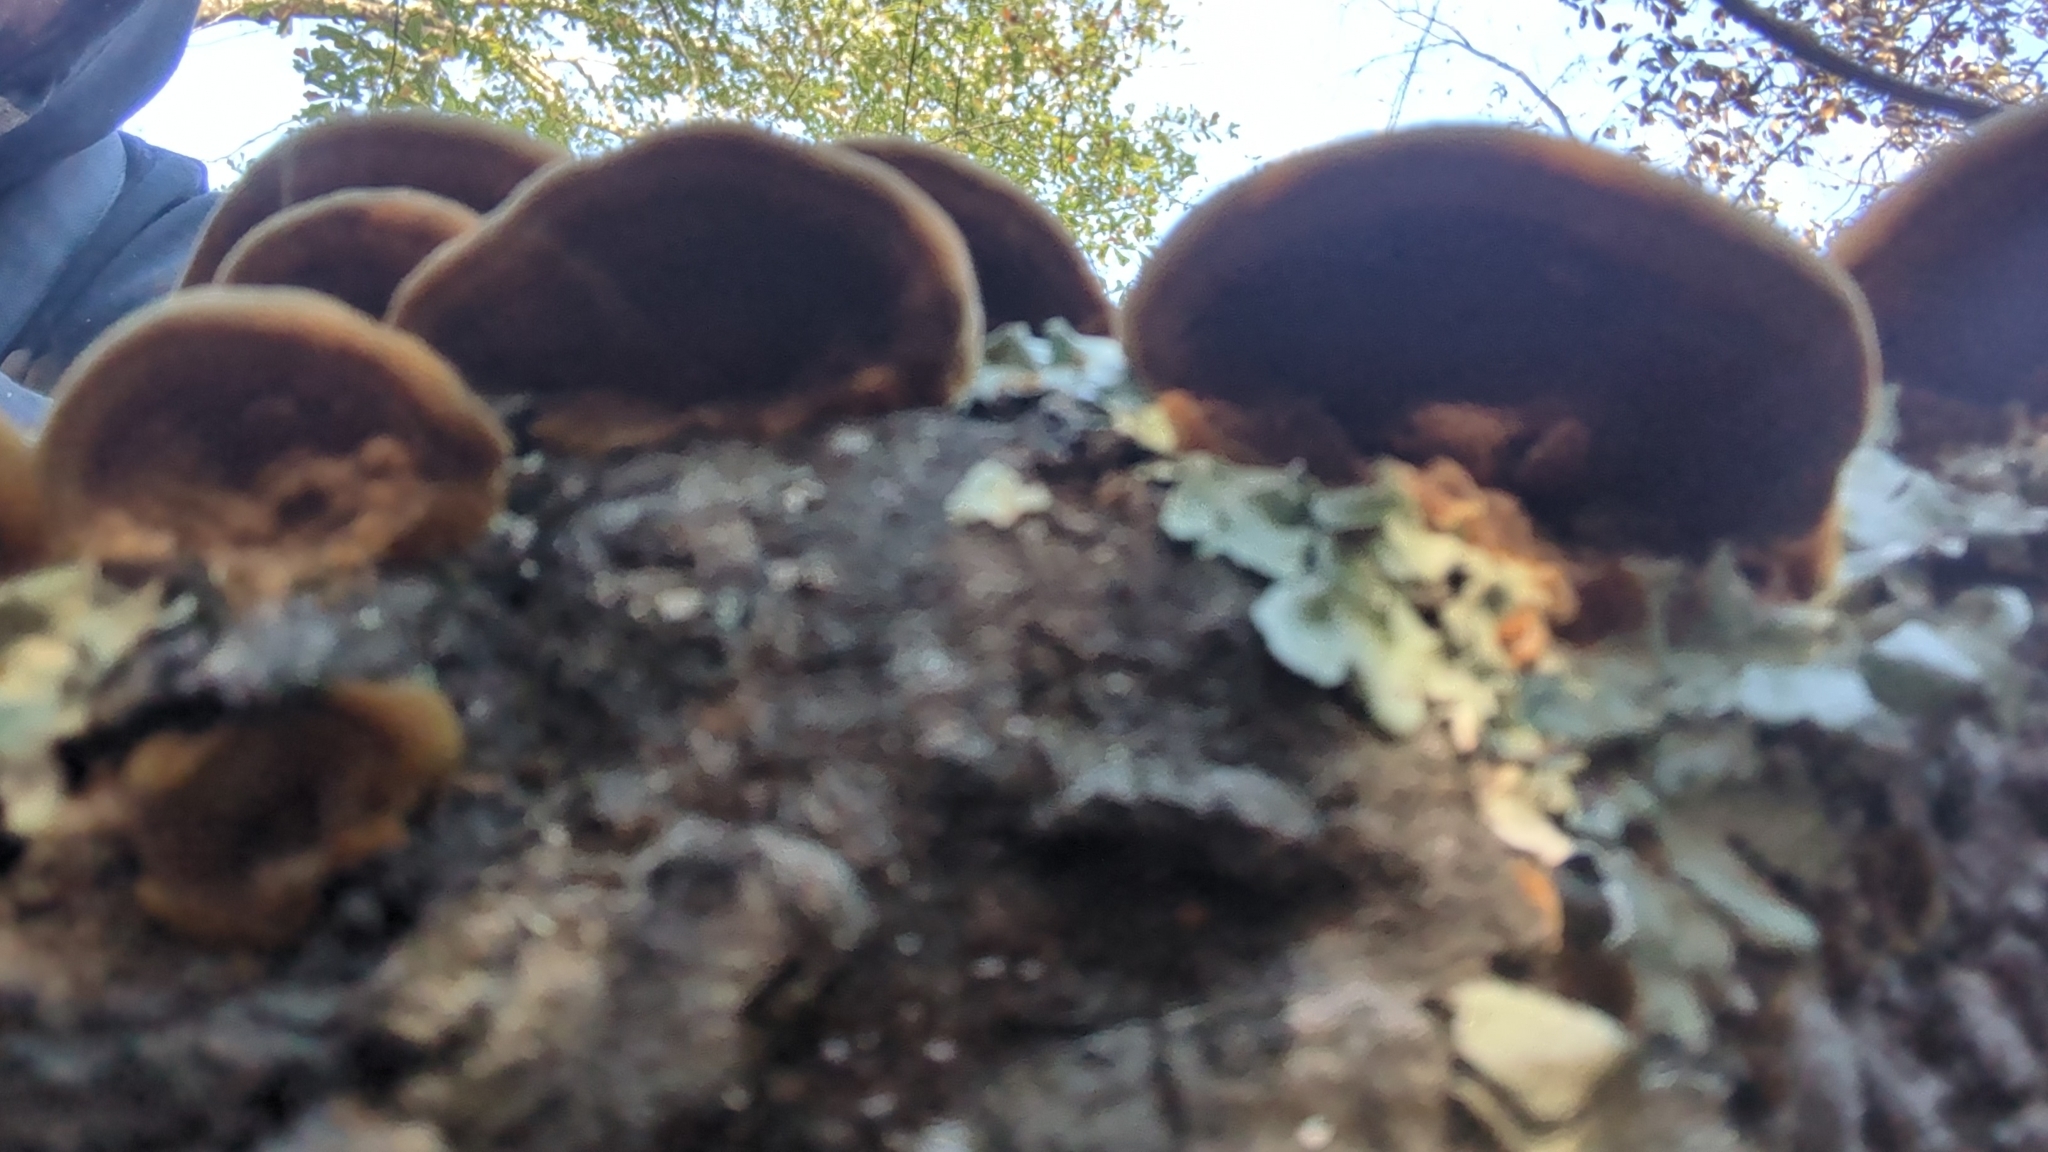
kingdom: Fungi
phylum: Basidiomycota
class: Agaricomycetes
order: Hymenochaetales
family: Hymenochaetaceae
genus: Phellinus
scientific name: Phellinus gilvus
